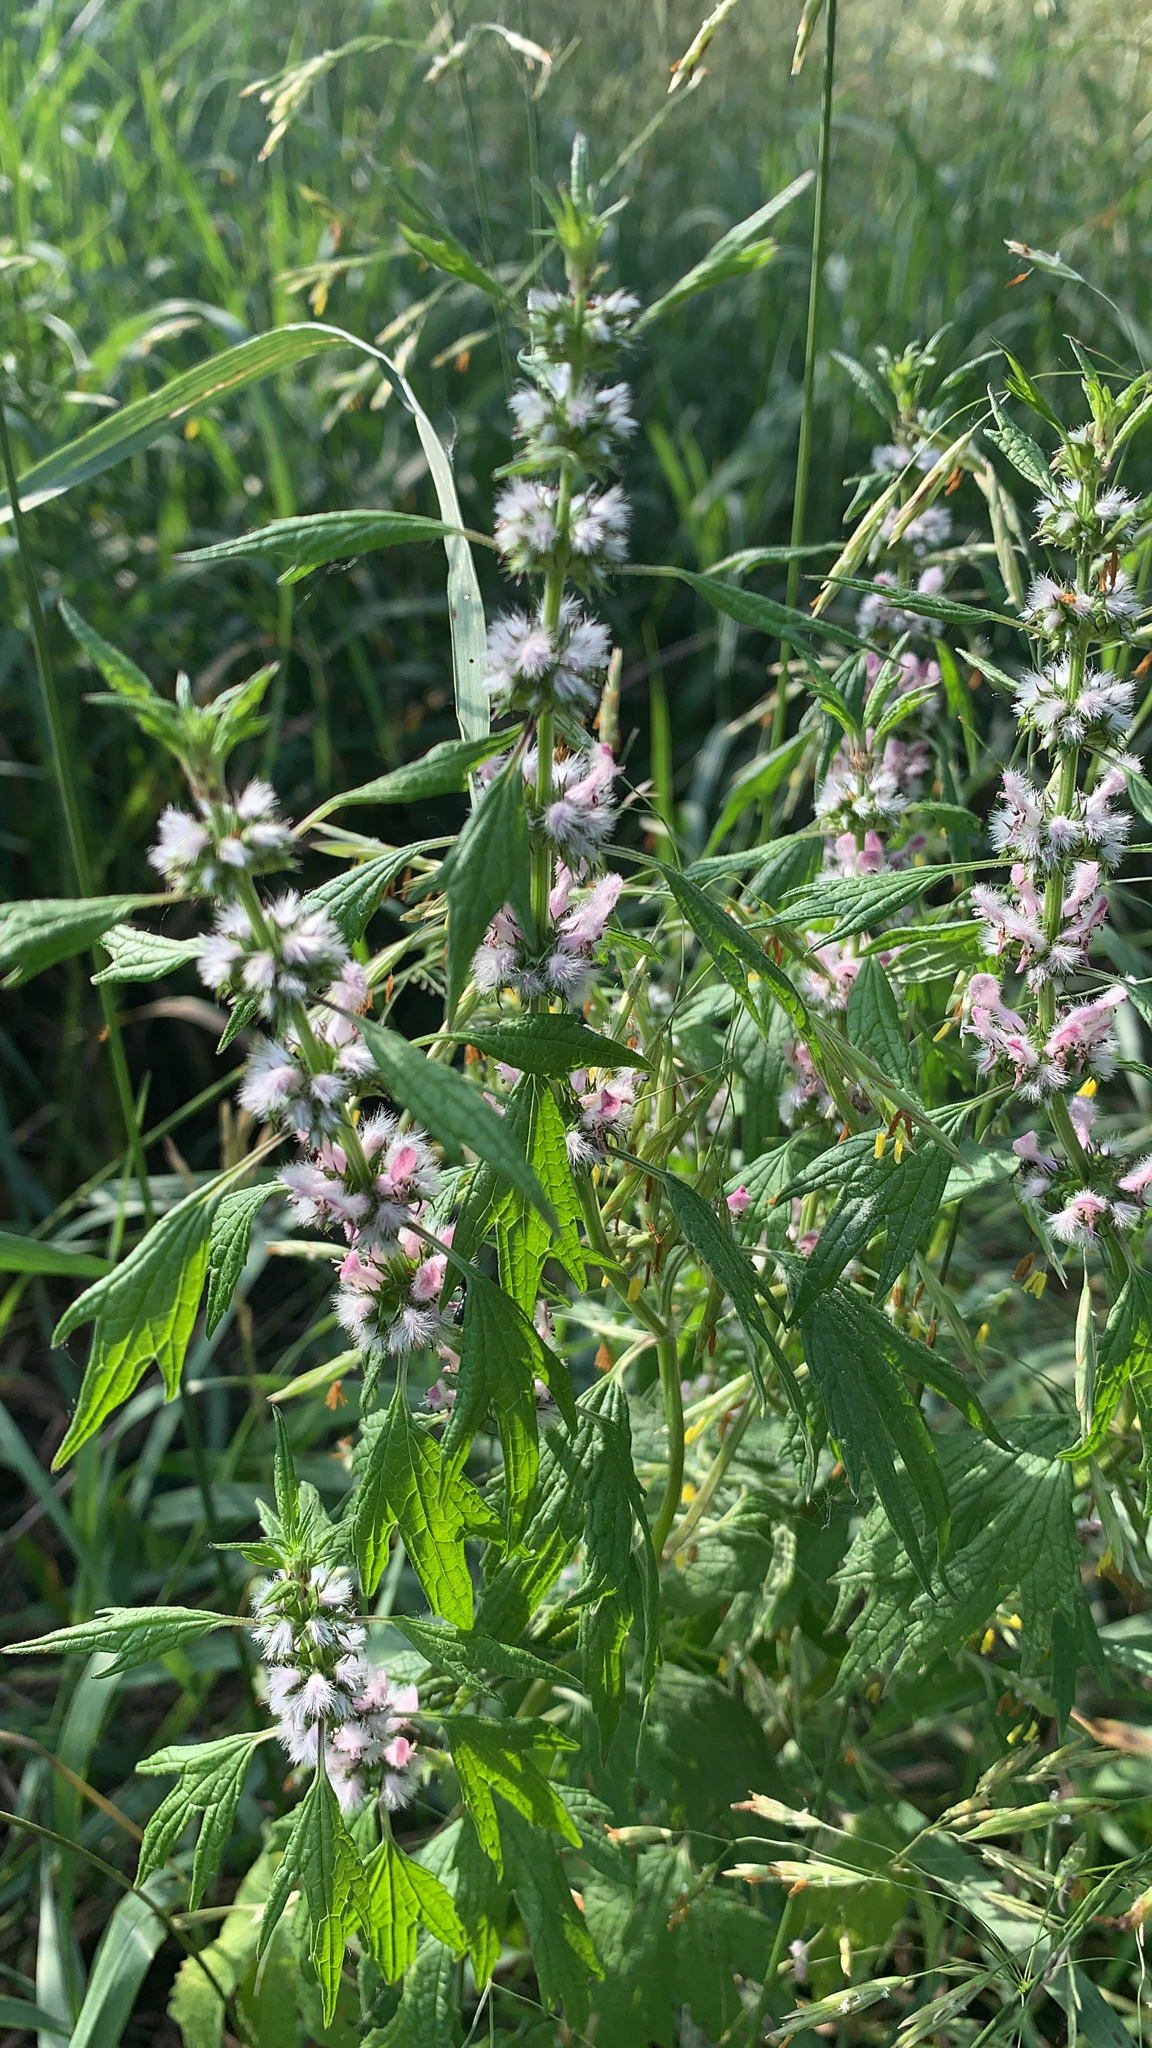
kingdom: Plantae
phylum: Tracheophyta
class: Magnoliopsida
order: Lamiales
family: Lamiaceae
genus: Leonurus
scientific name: Leonurus cardiaca
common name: Motherwort
